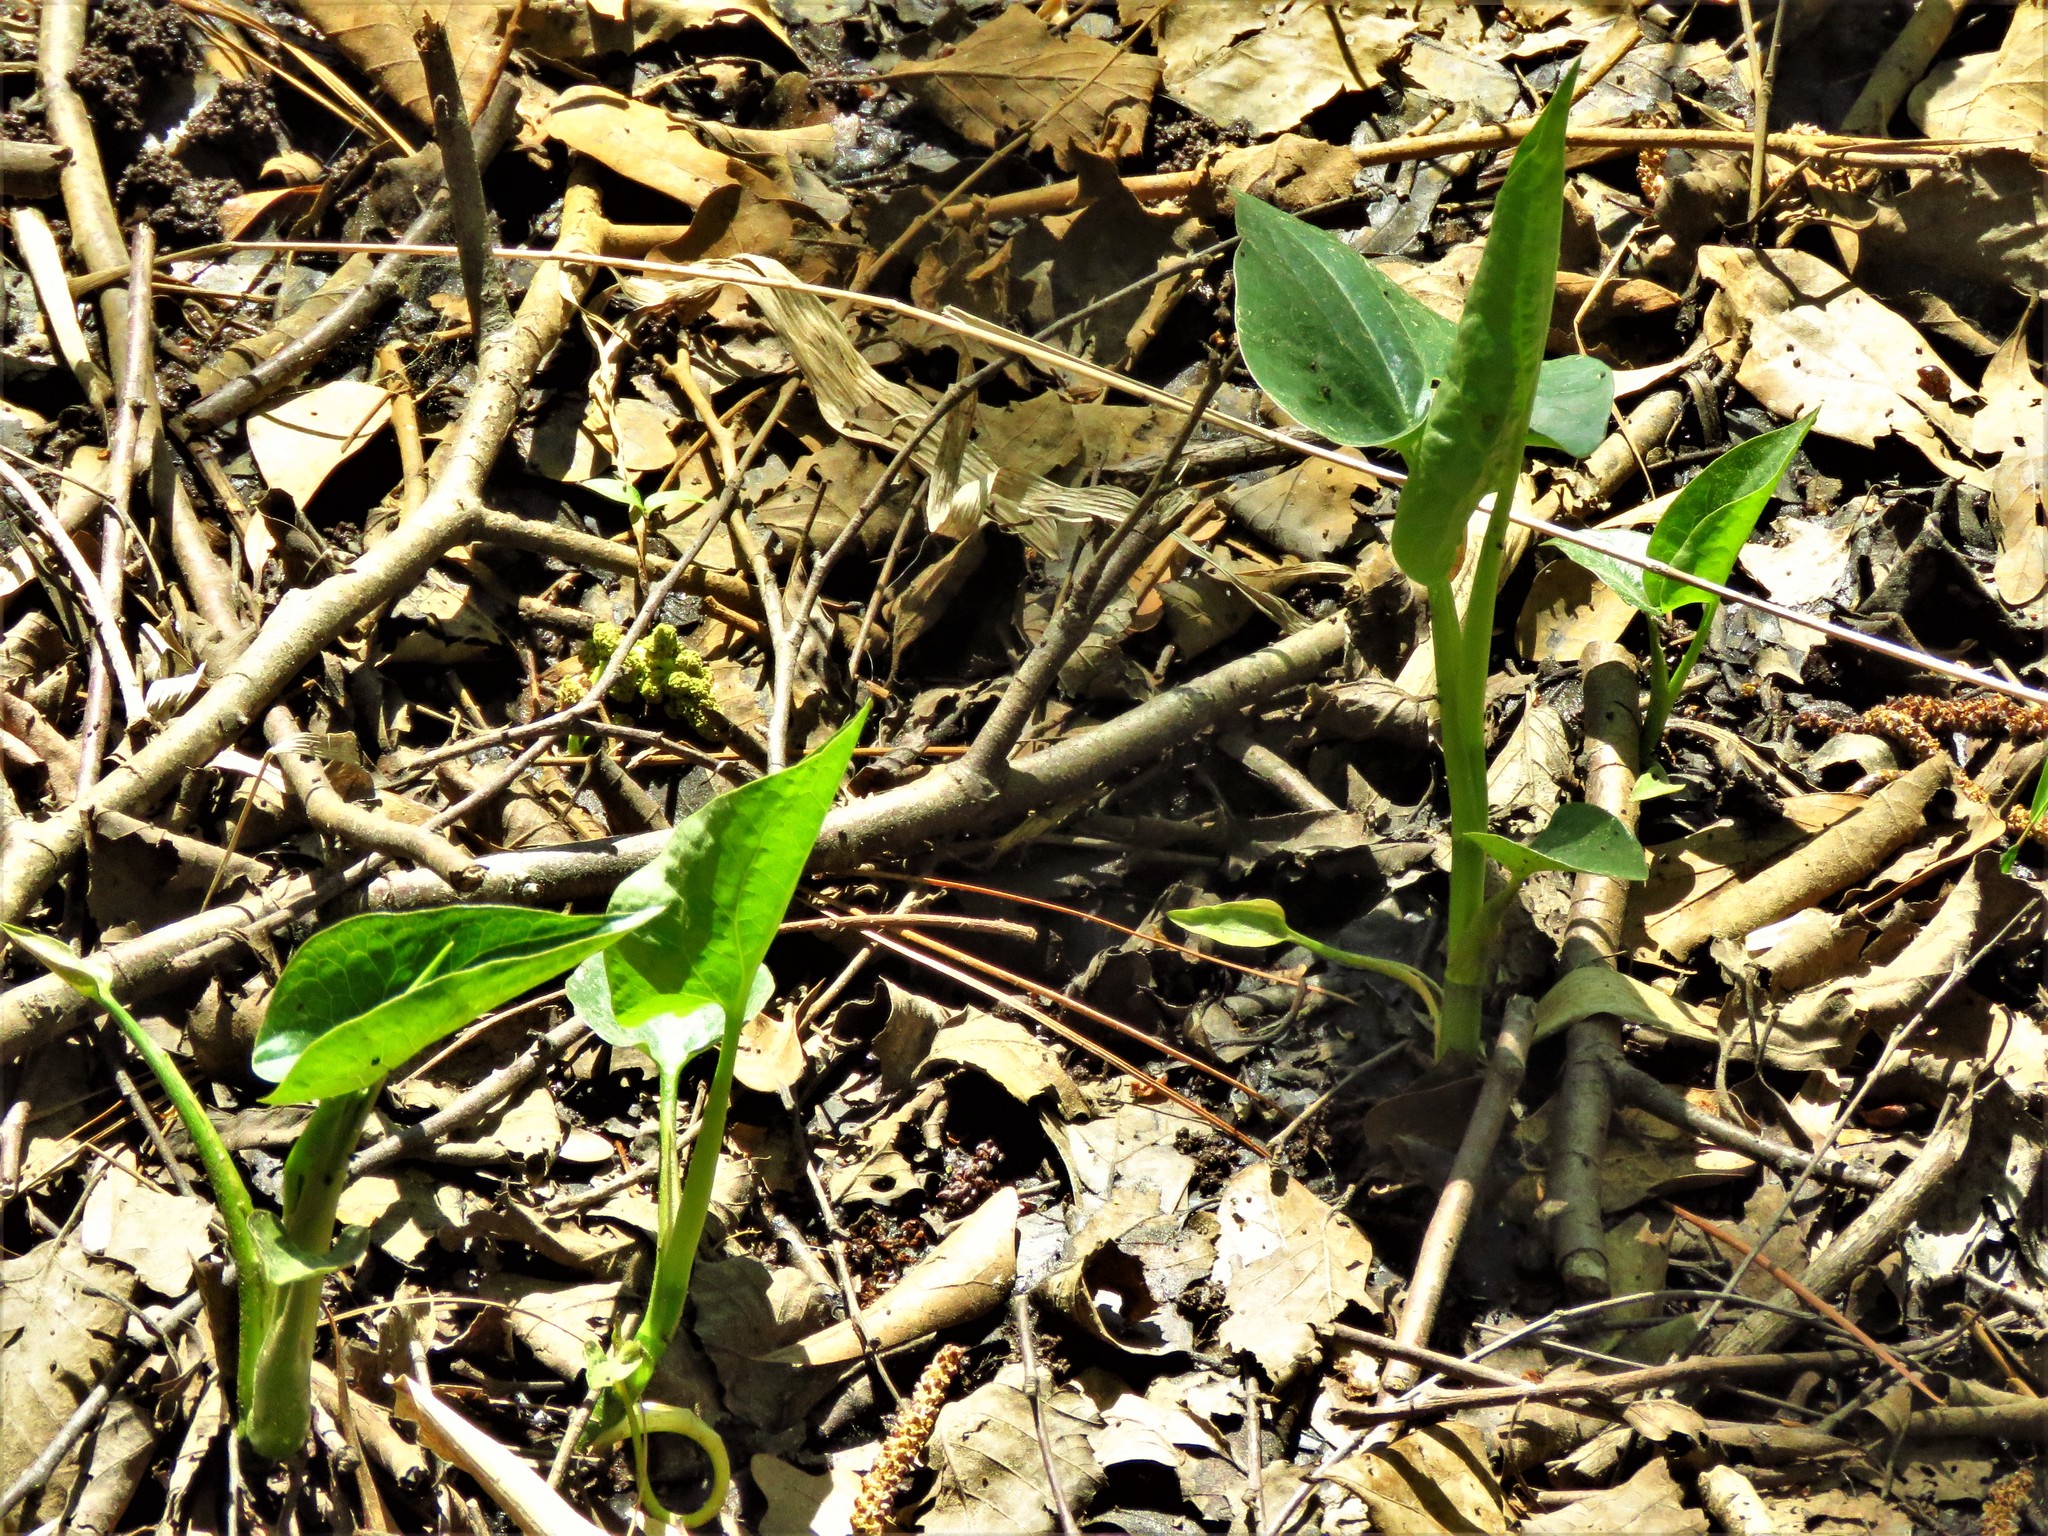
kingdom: Plantae
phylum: Tracheophyta
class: Magnoliopsida
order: Piperales
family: Saururaceae
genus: Saururus
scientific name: Saururus cernuus
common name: Lizard's-tail
